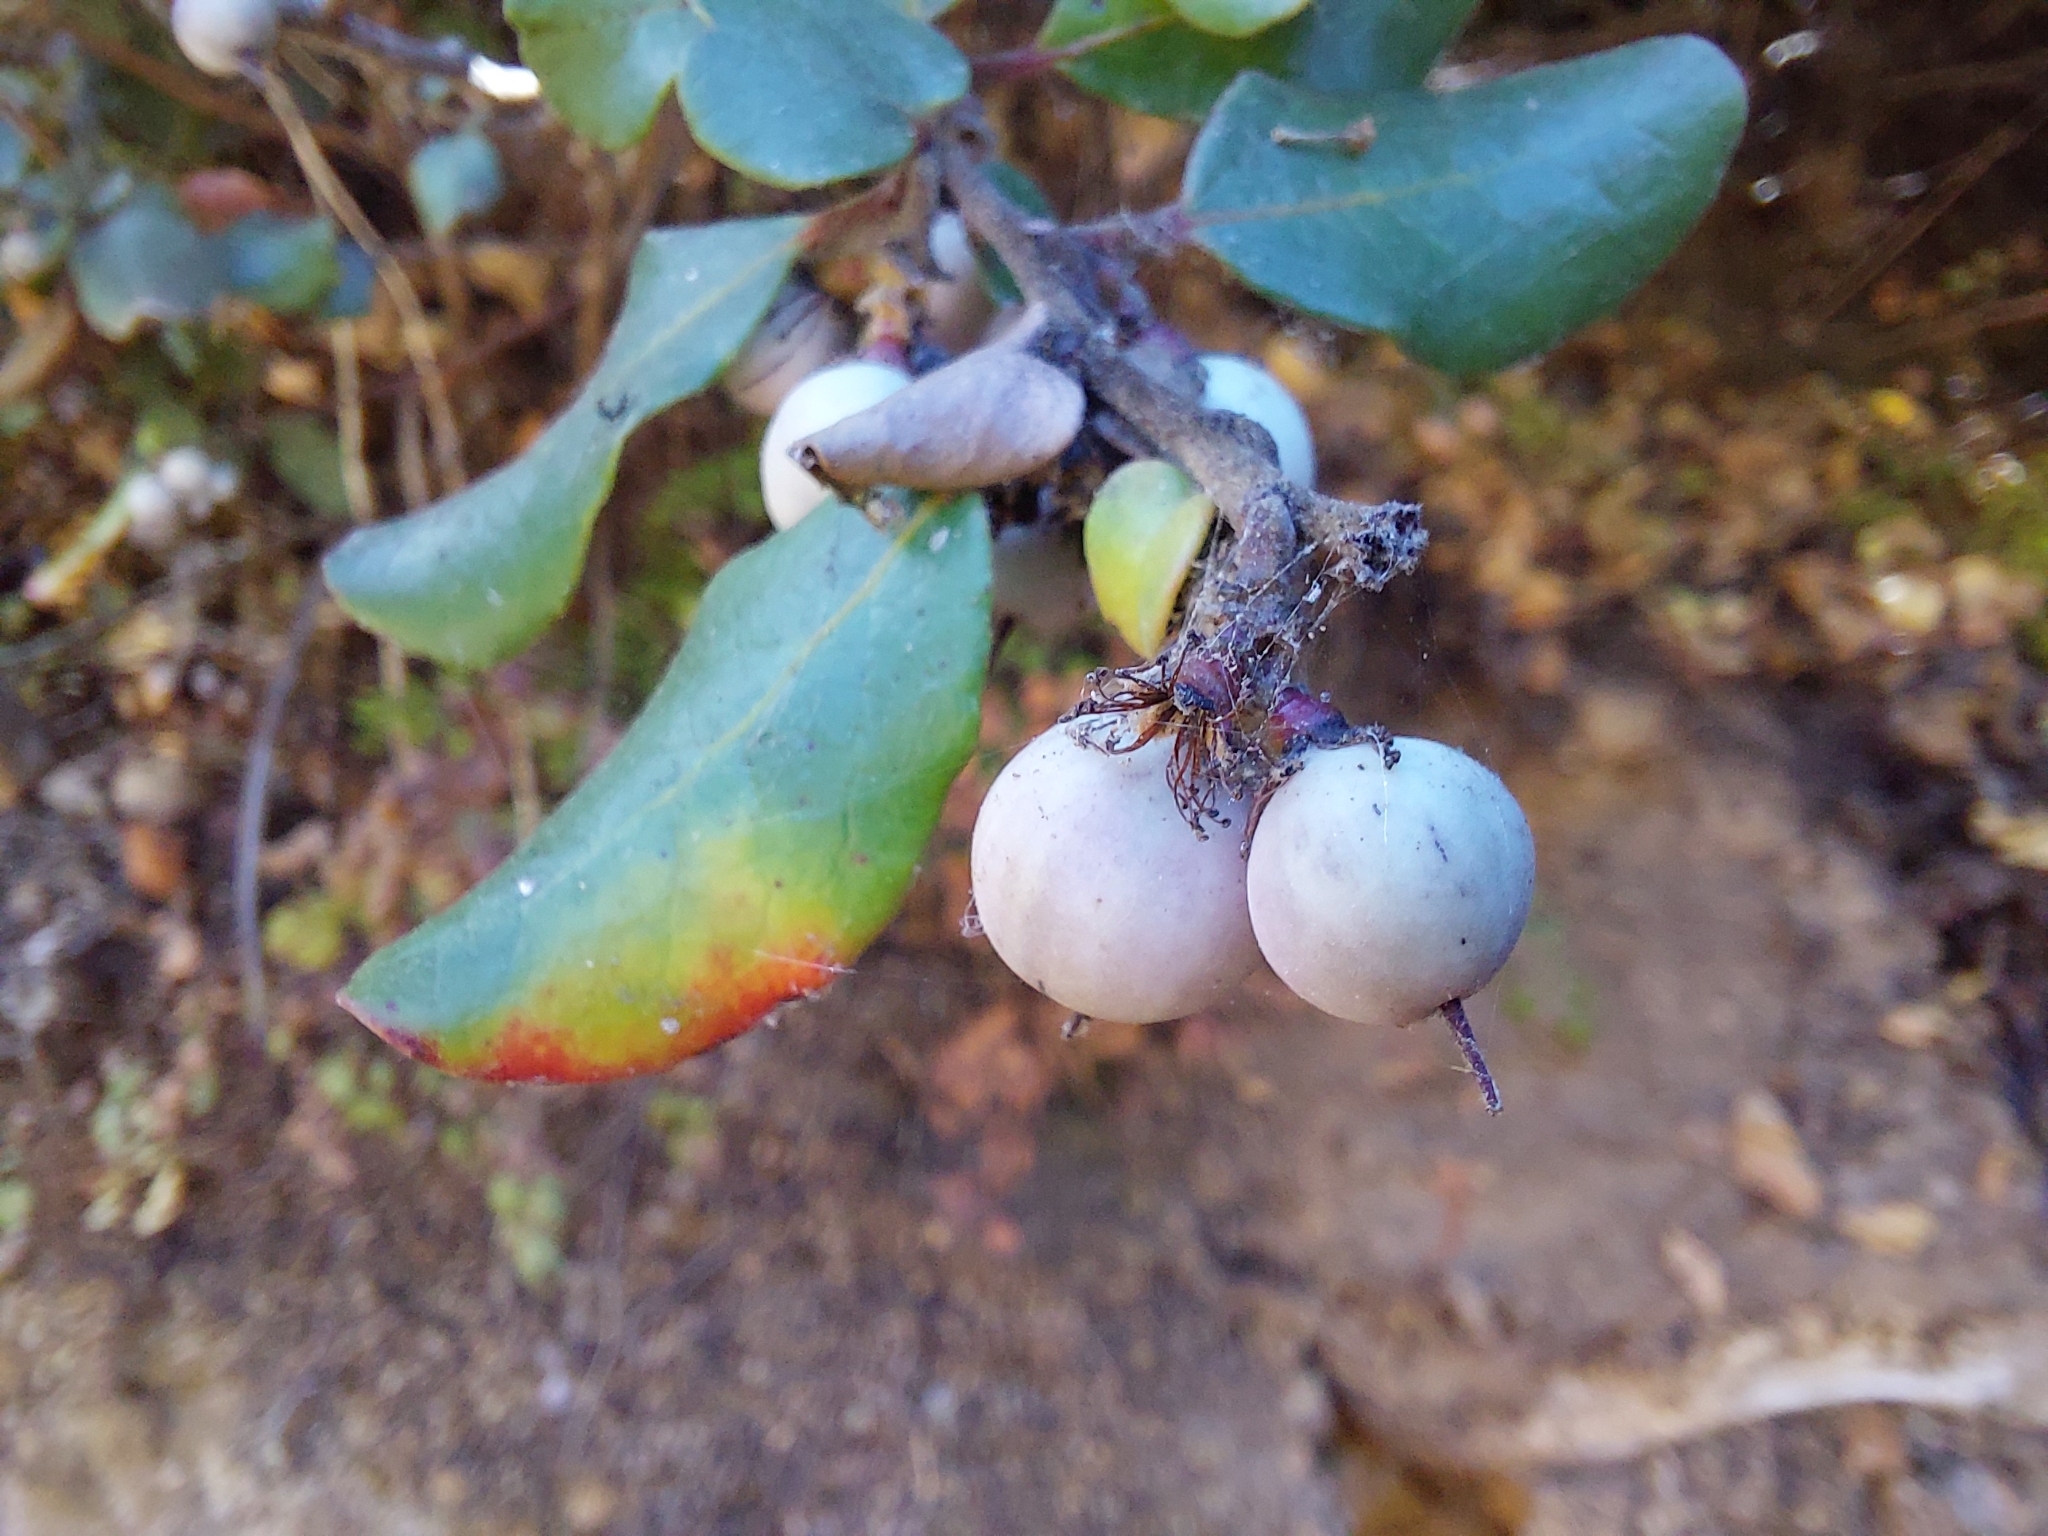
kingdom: Plantae
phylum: Tracheophyta
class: Magnoliopsida
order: Malpighiales
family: Salicaceae
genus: Azara
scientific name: Azara integrifolia
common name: Goldspire
